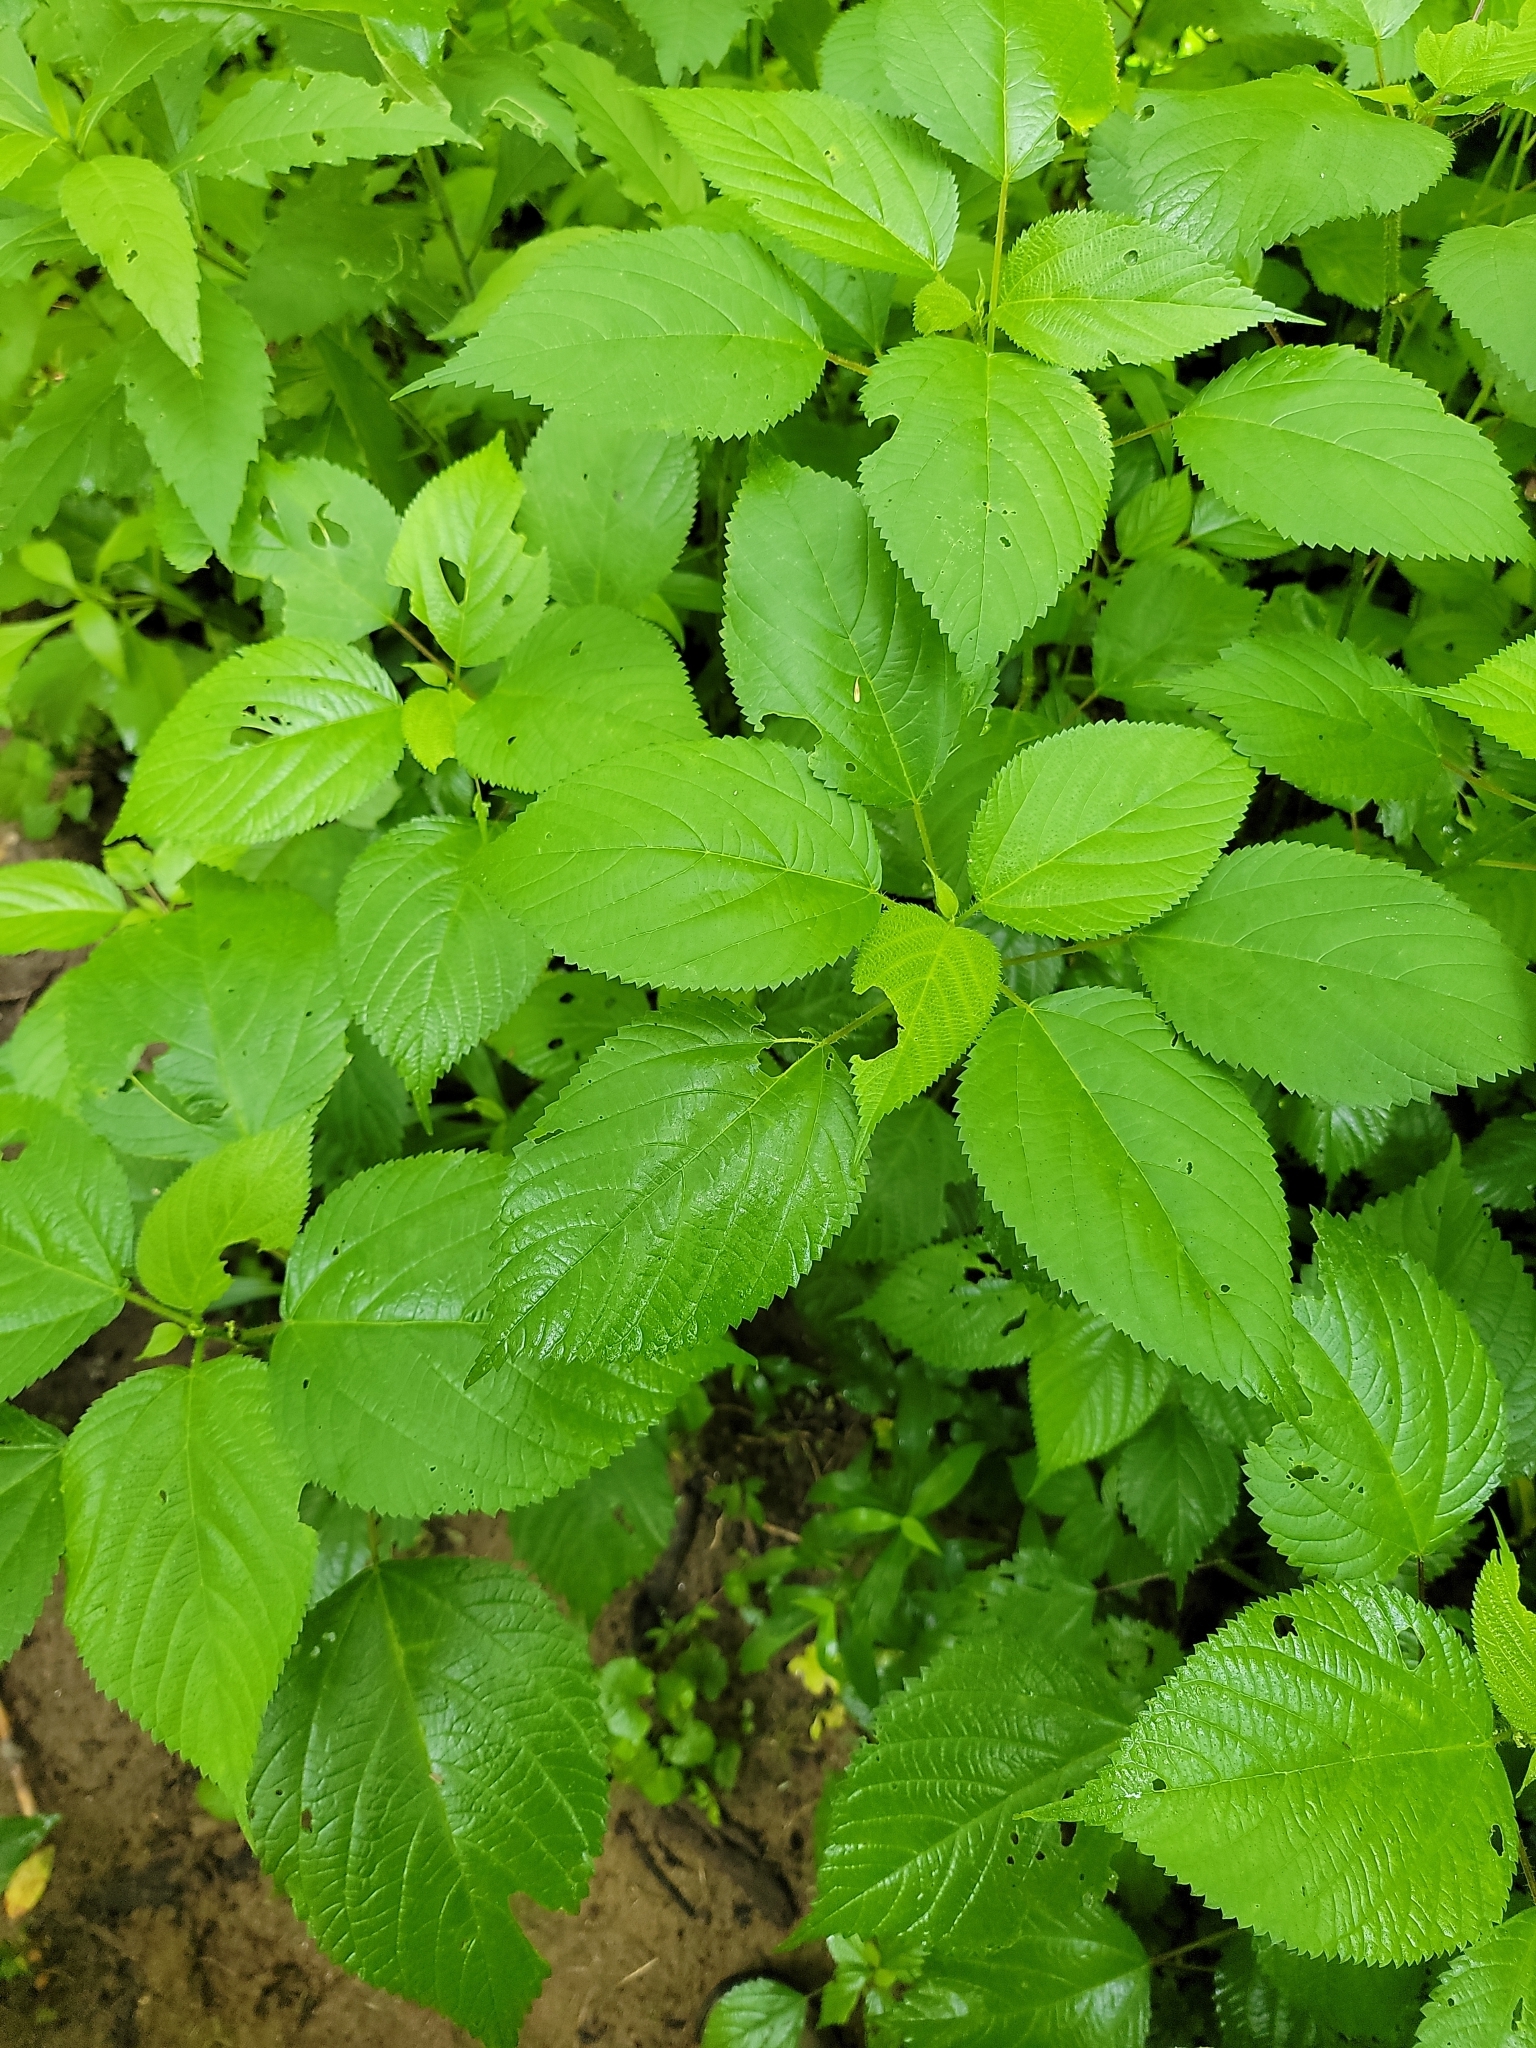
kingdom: Plantae
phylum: Tracheophyta
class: Magnoliopsida
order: Rosales
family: Urticaceae
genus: Laportea
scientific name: Laportea canadensis
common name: Canada nettle
